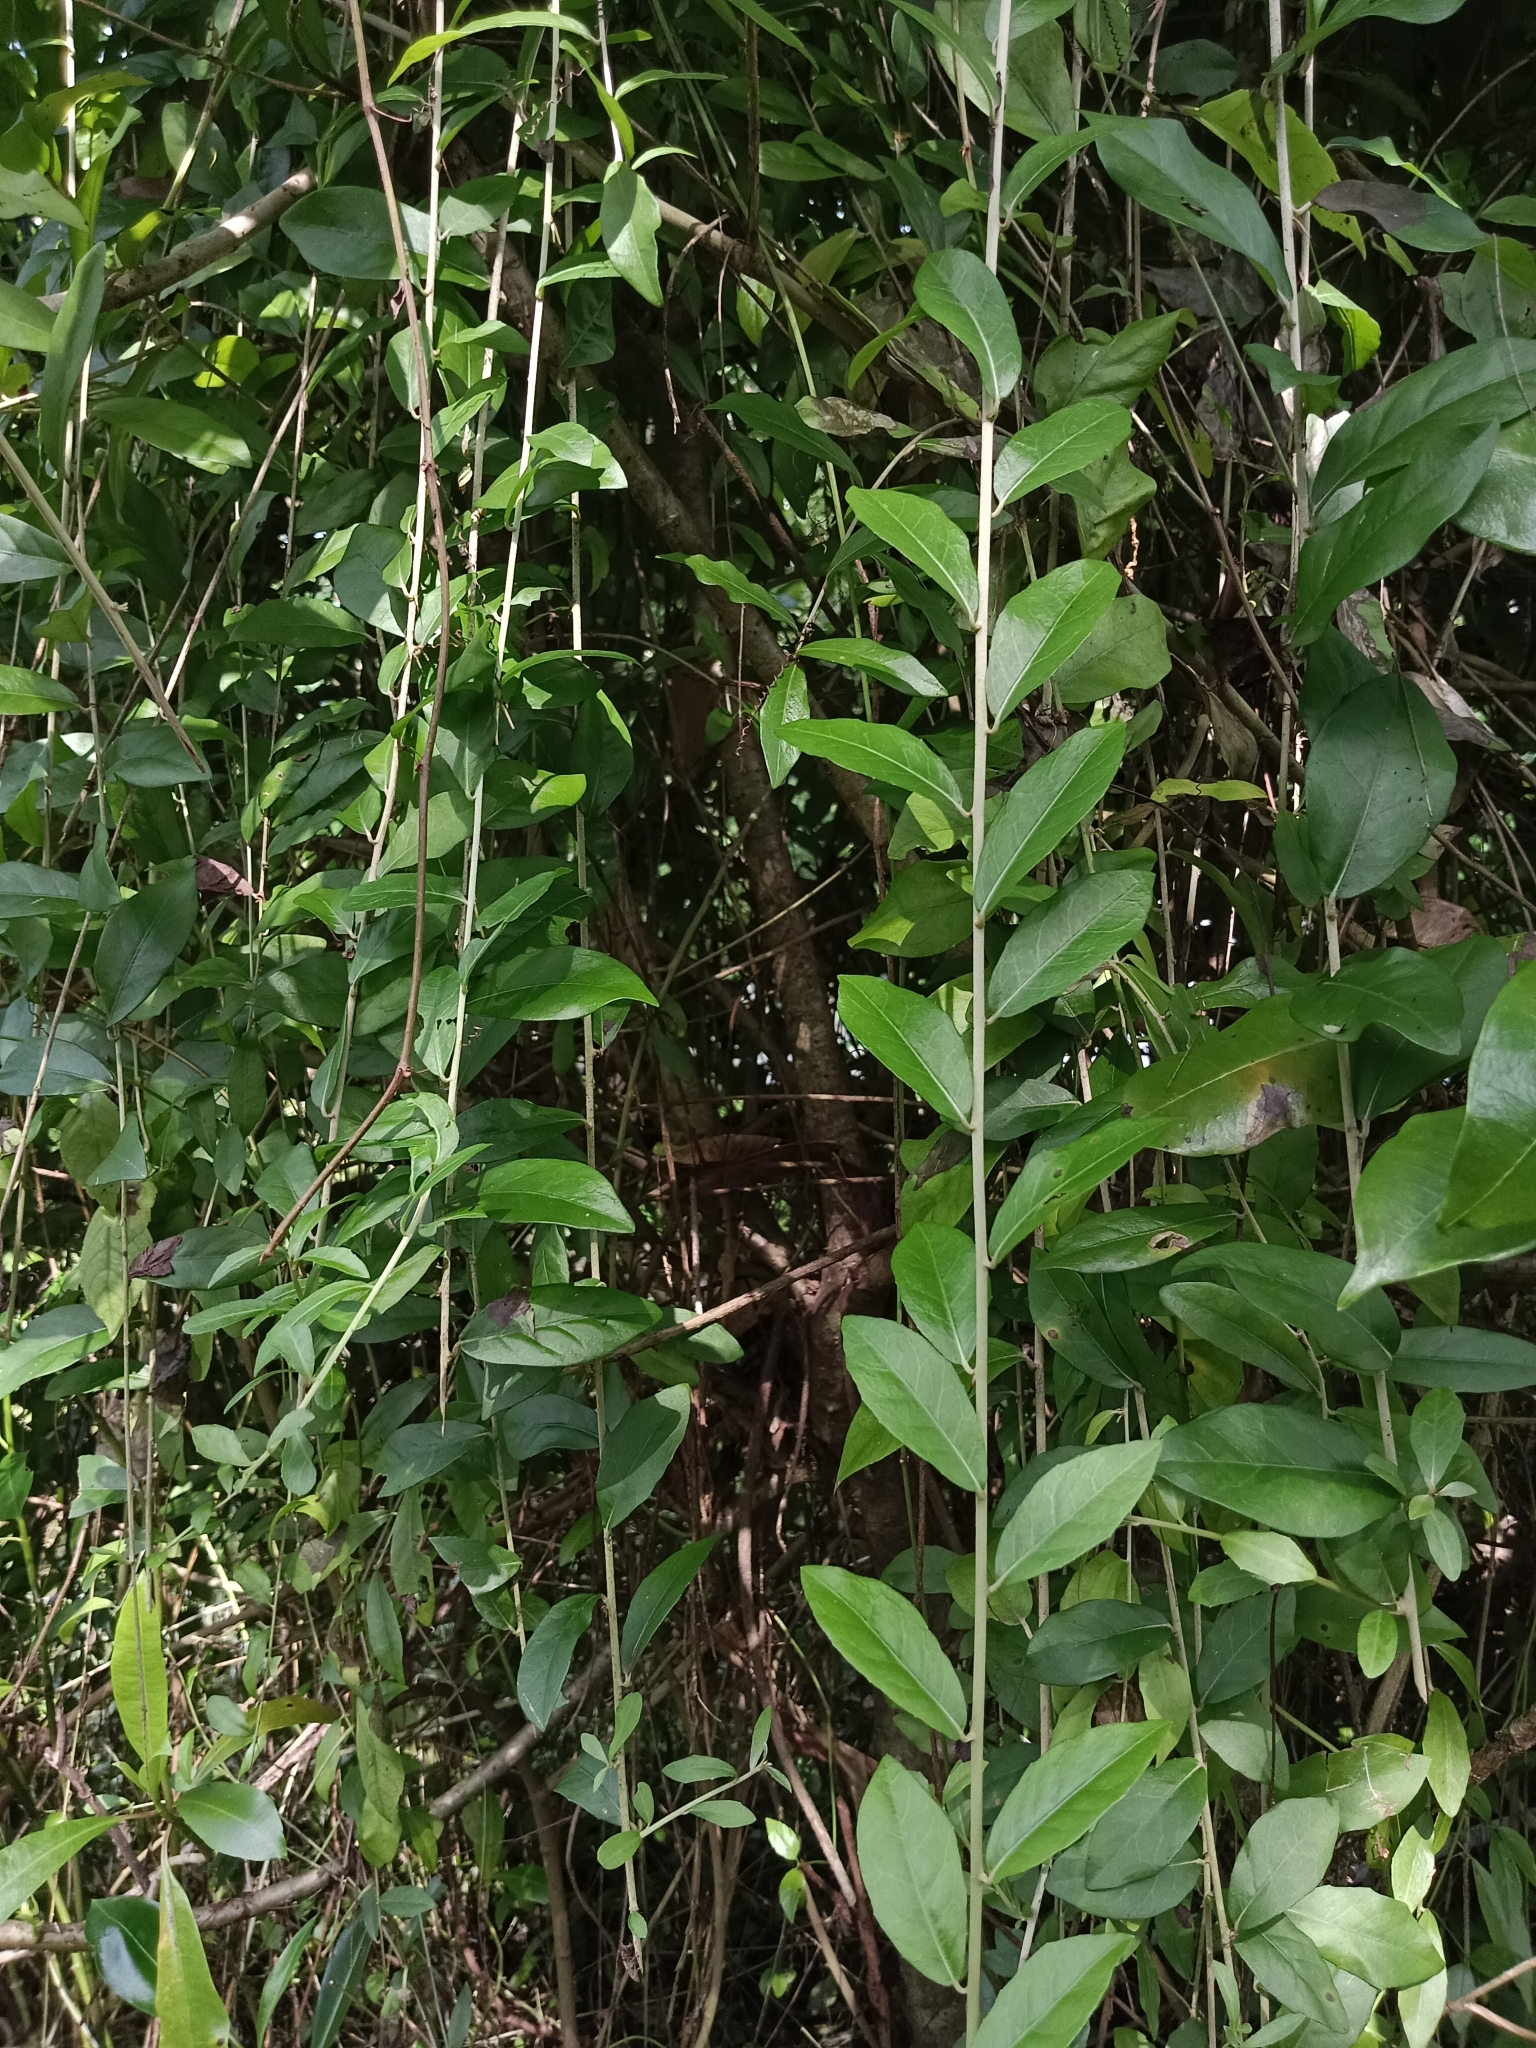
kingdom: Plantae
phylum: Tracheophyta
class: Magnoliopsida
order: Asterales
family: Asteraceae
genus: Tarlmounia
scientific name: Tarlmounia elliptica
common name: Kheua sa lot
